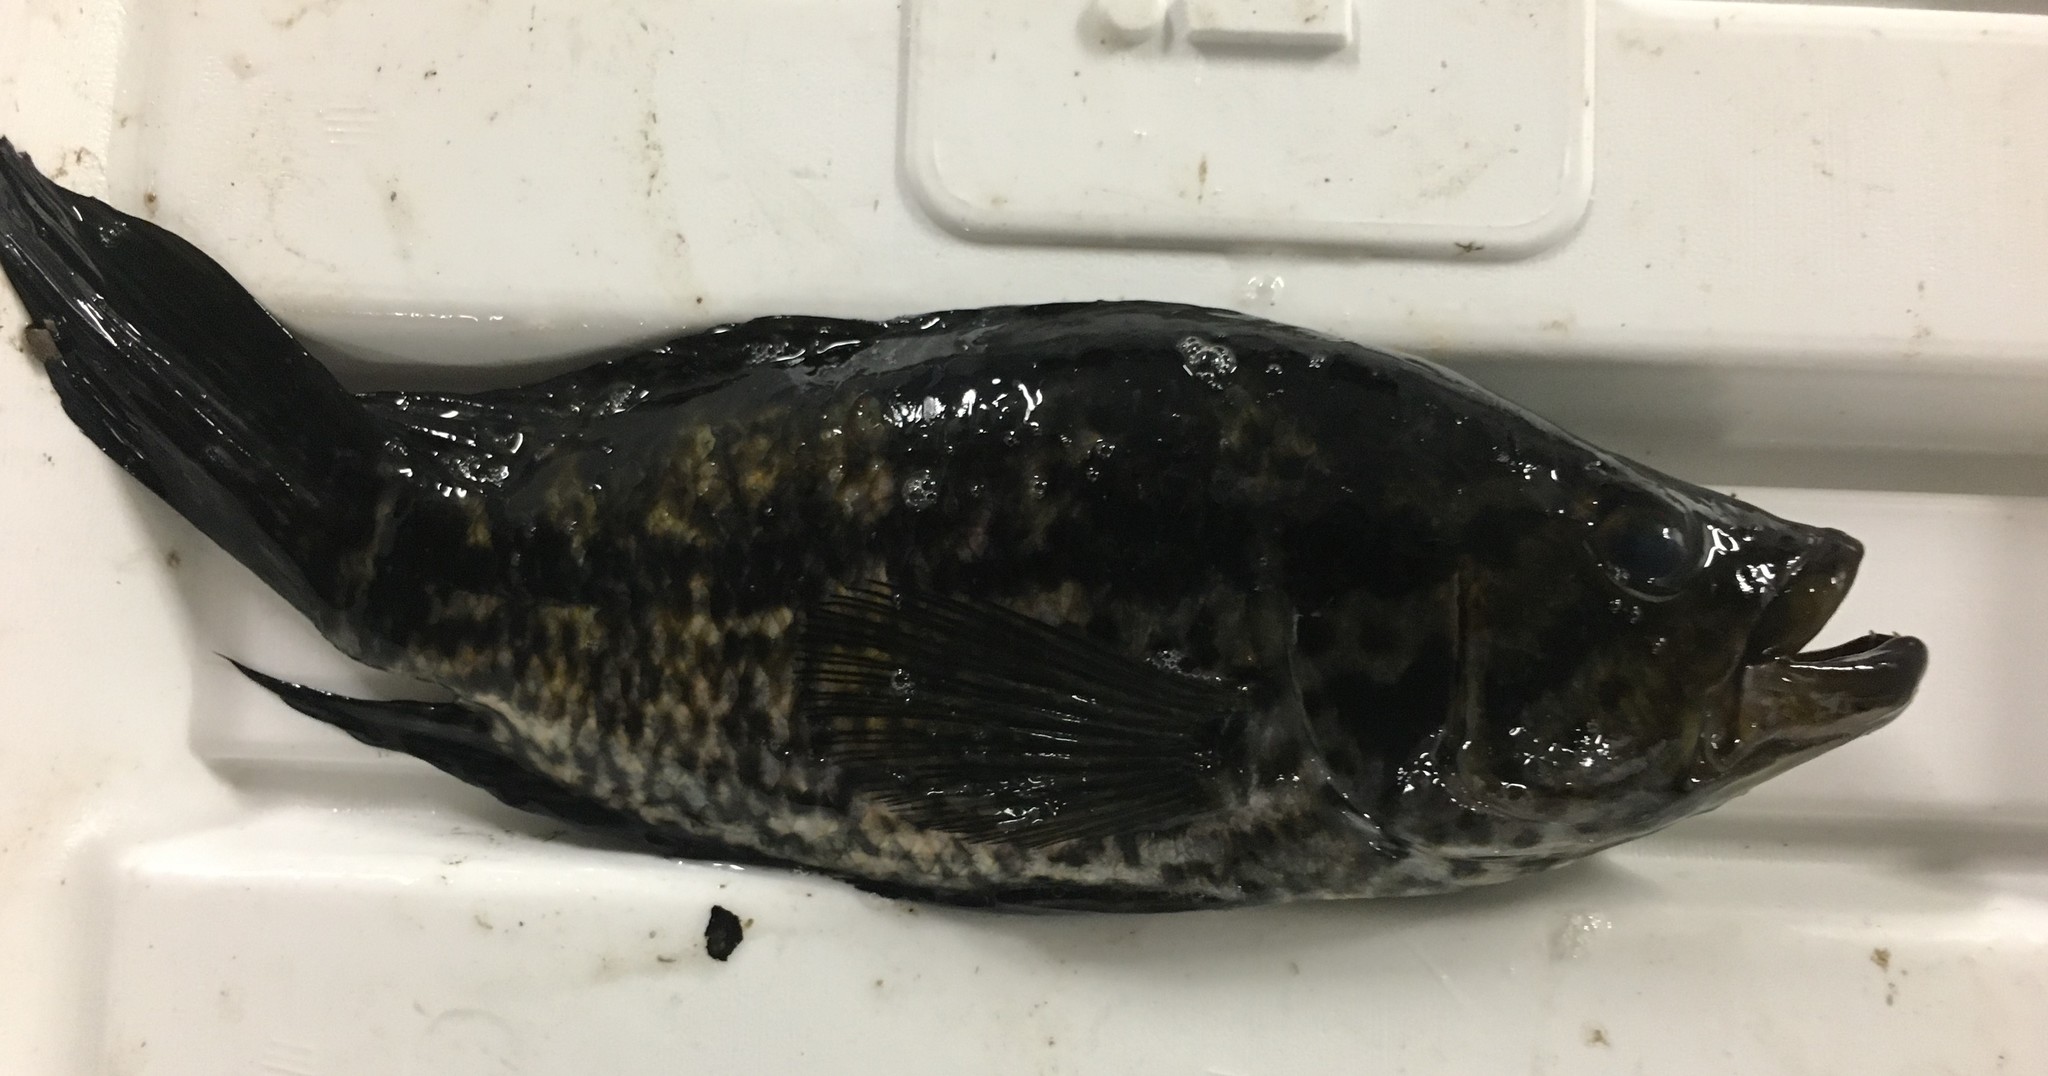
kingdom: Animalia
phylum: Chordata
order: Perciformes
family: Cichlidae
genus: Parachromis
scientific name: Parachromis managuensis
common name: Jaguar guapote
